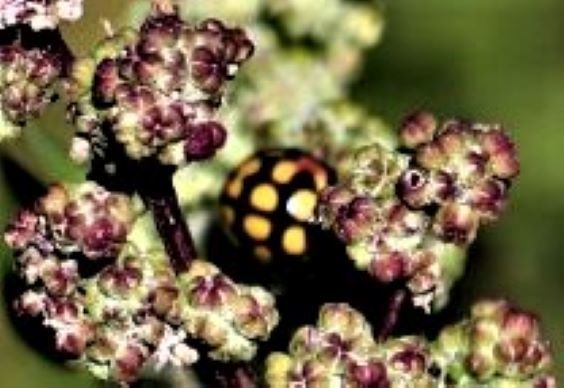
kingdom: Animalia
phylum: Arthropoda
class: Insecta
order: Coleoptera
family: Coccinellidae
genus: Cheilomenes
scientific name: Cheilomenes sulphurea
